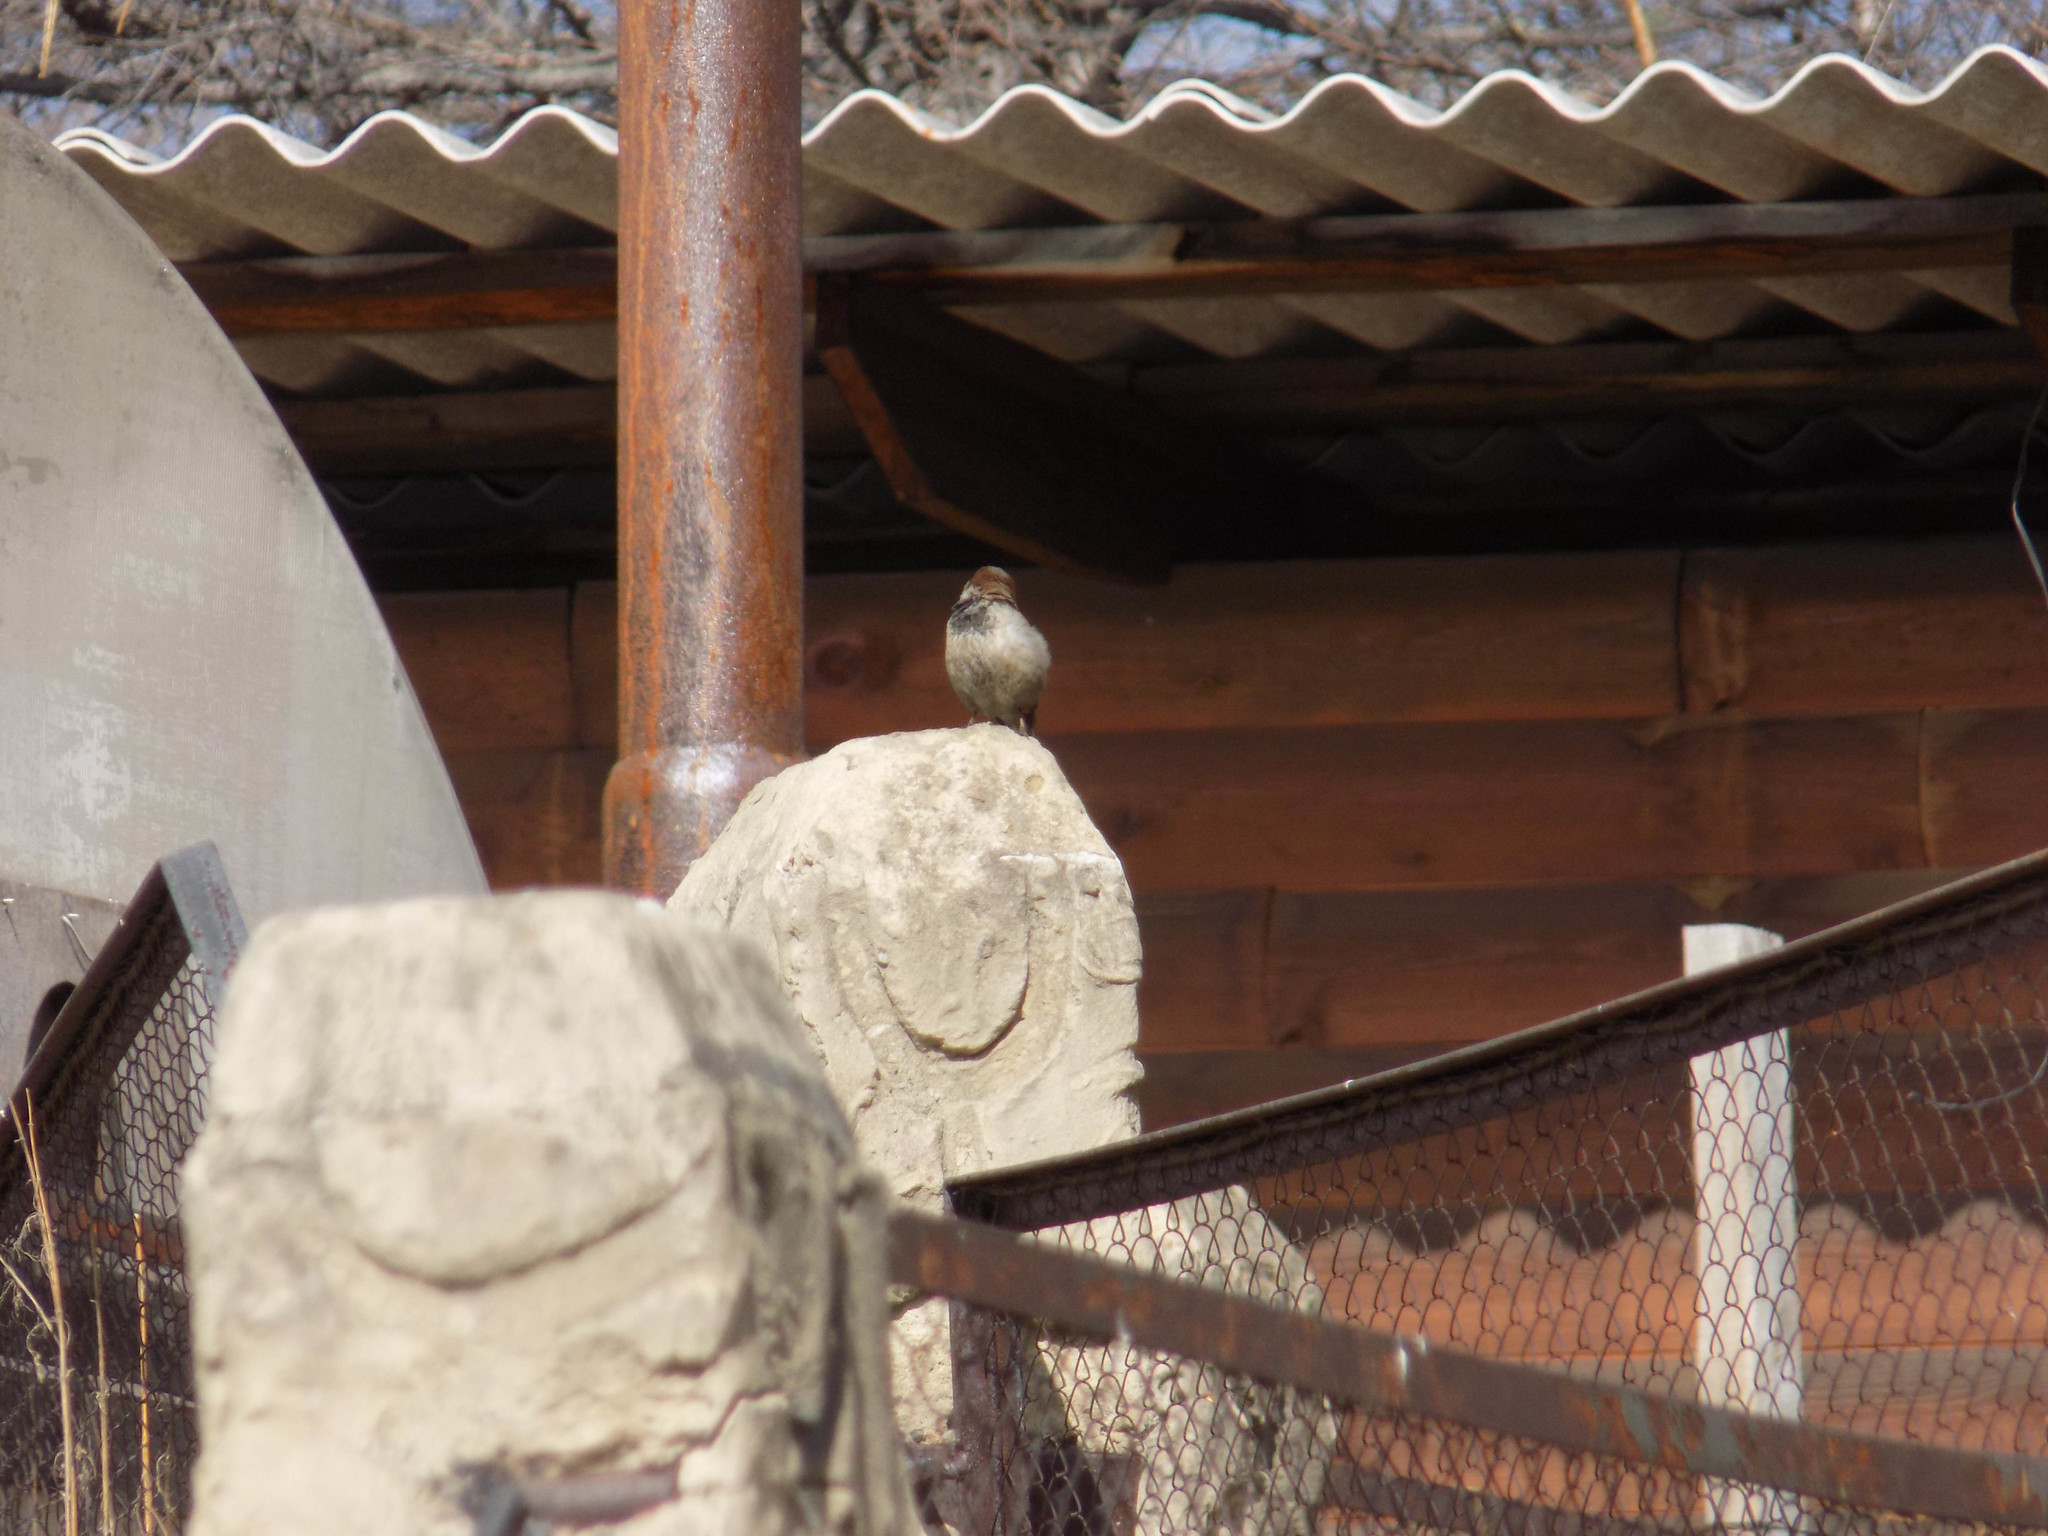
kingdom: Animalia
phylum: Chordata
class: Aves
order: Passeriformes
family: Passeridae
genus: Passer
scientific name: Passer domesticus
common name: House sparrow
